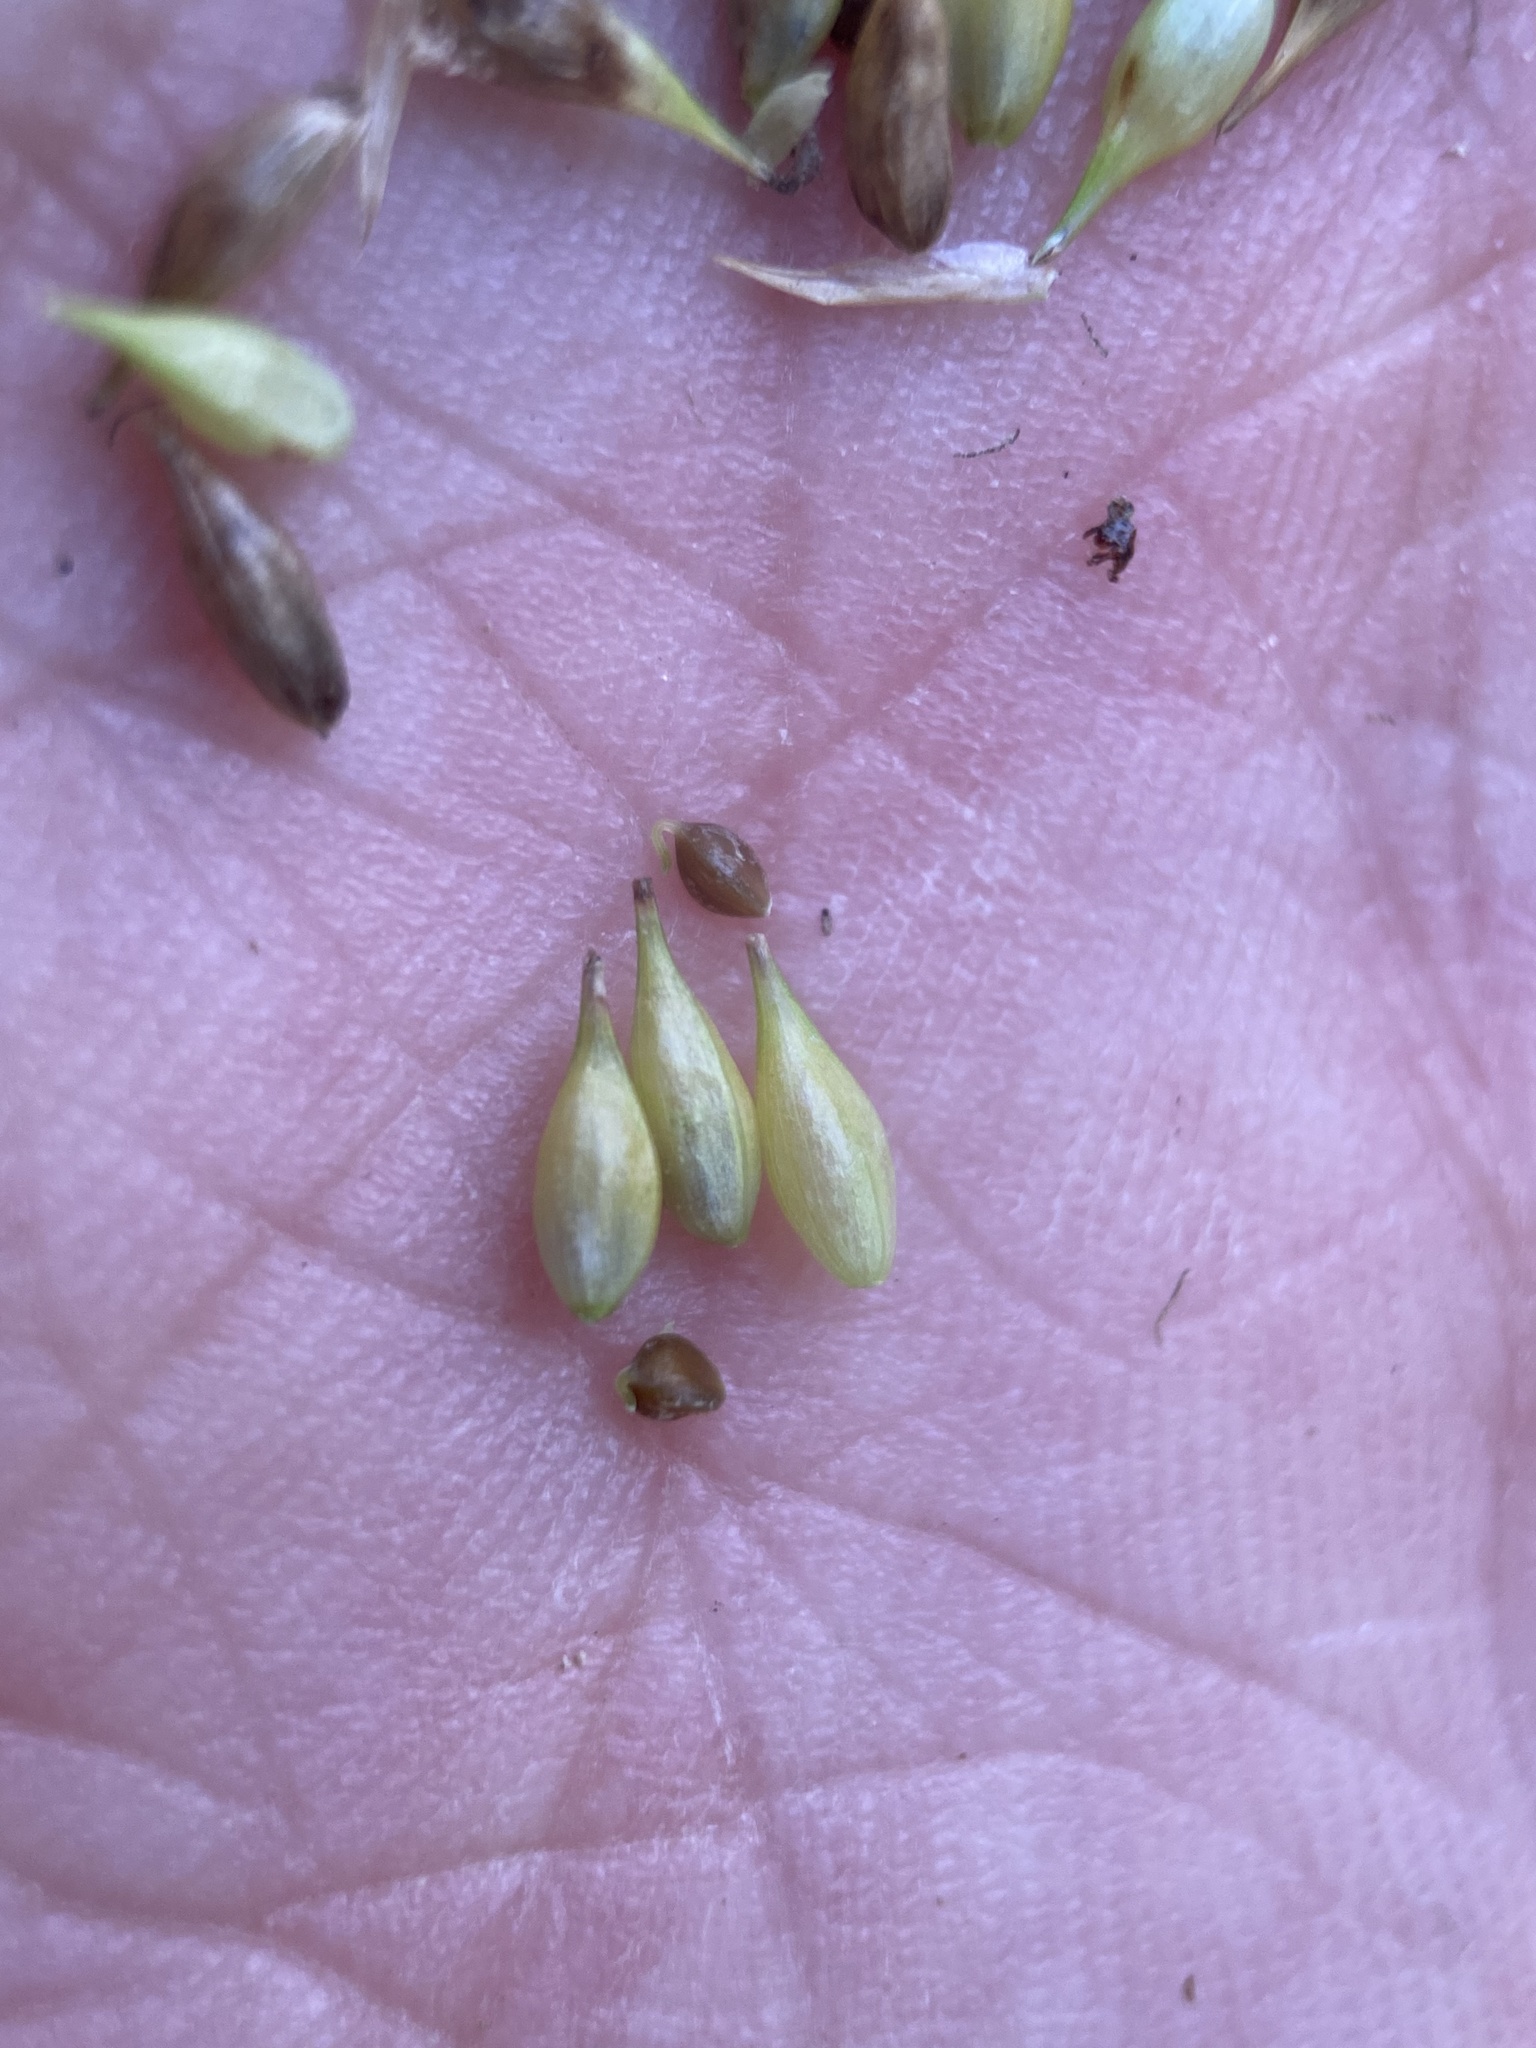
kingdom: Plantae
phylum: Tracheophyta
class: Liliopsida
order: Poales
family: Cyperaceae
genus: Carex
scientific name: Carex utriculata
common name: Beaked sedge
